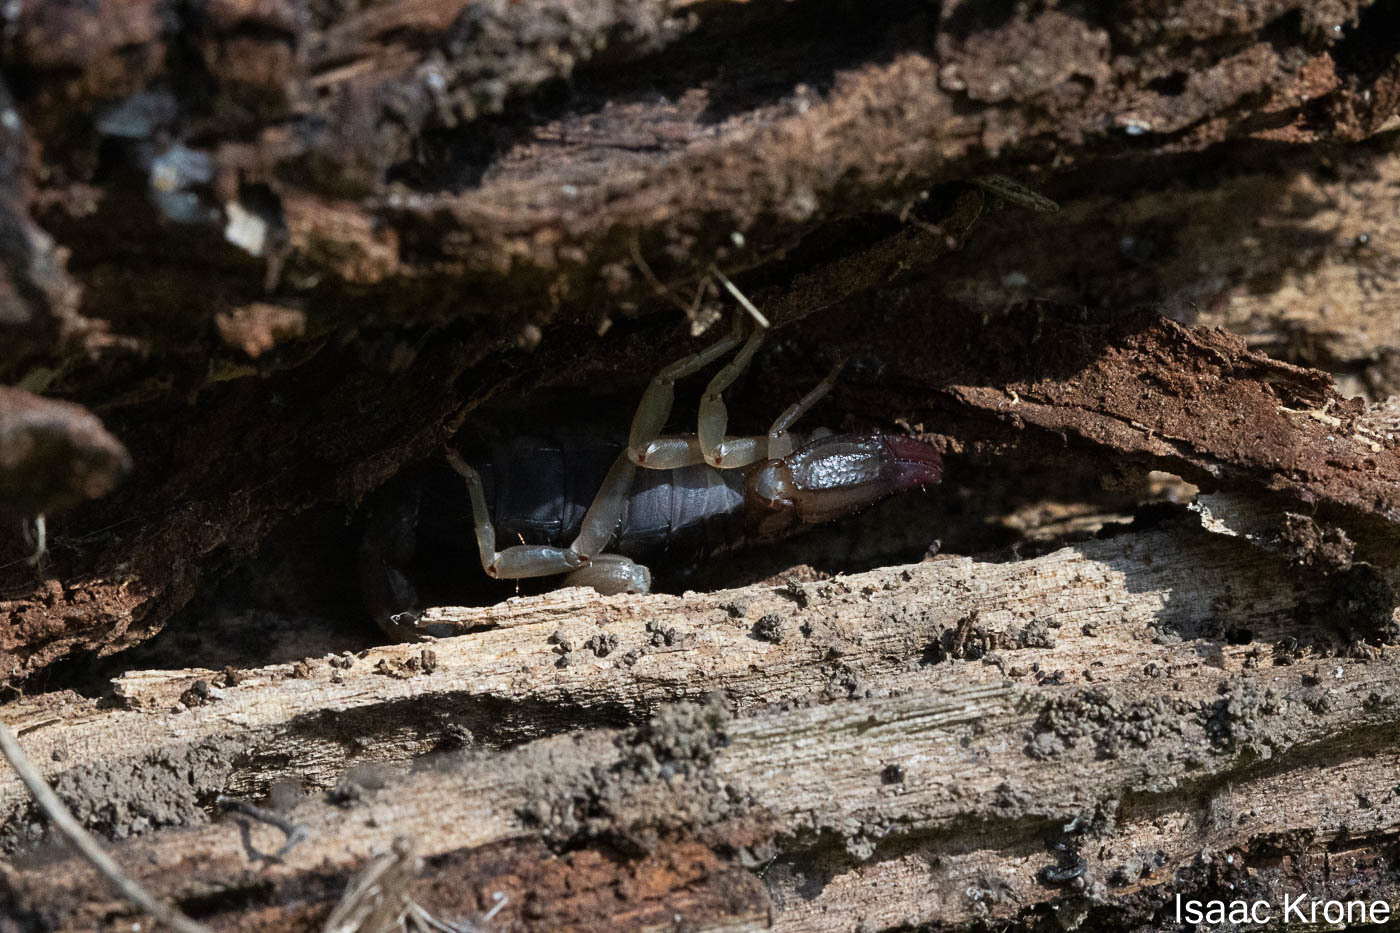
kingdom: Animalia
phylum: Arthropoda
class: Arachnida
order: Scorpiones
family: Chactidae
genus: Uroctonus
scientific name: Uroctonus mordax
